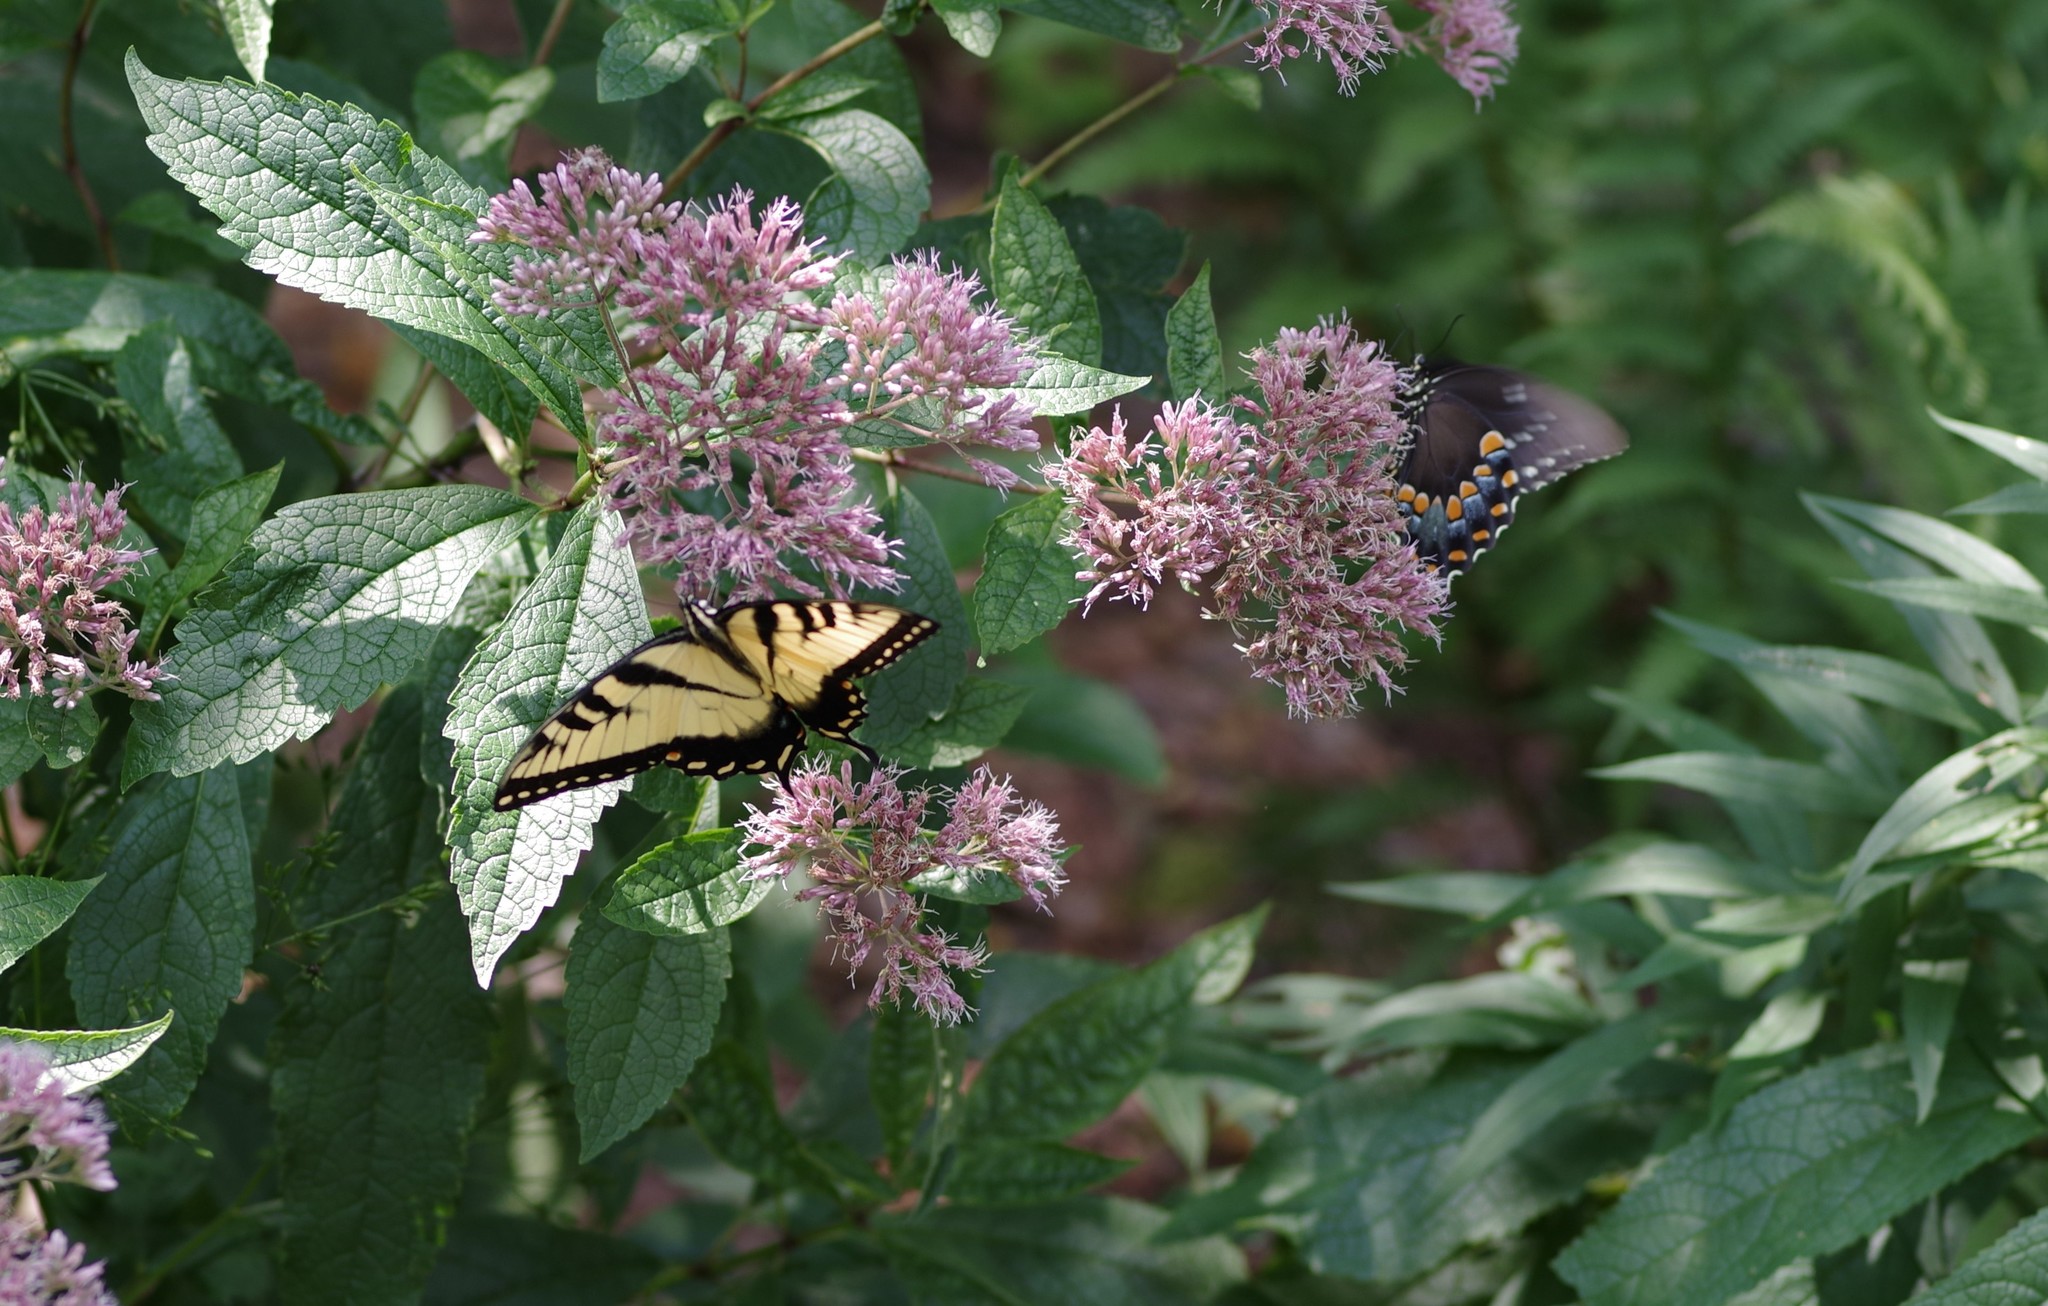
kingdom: Animalia
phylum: Arthropoda
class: Insecta
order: Lepidoptera
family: Papilionidae
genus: Papilio
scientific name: Papilio glaucus
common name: Tiger swallowtail
